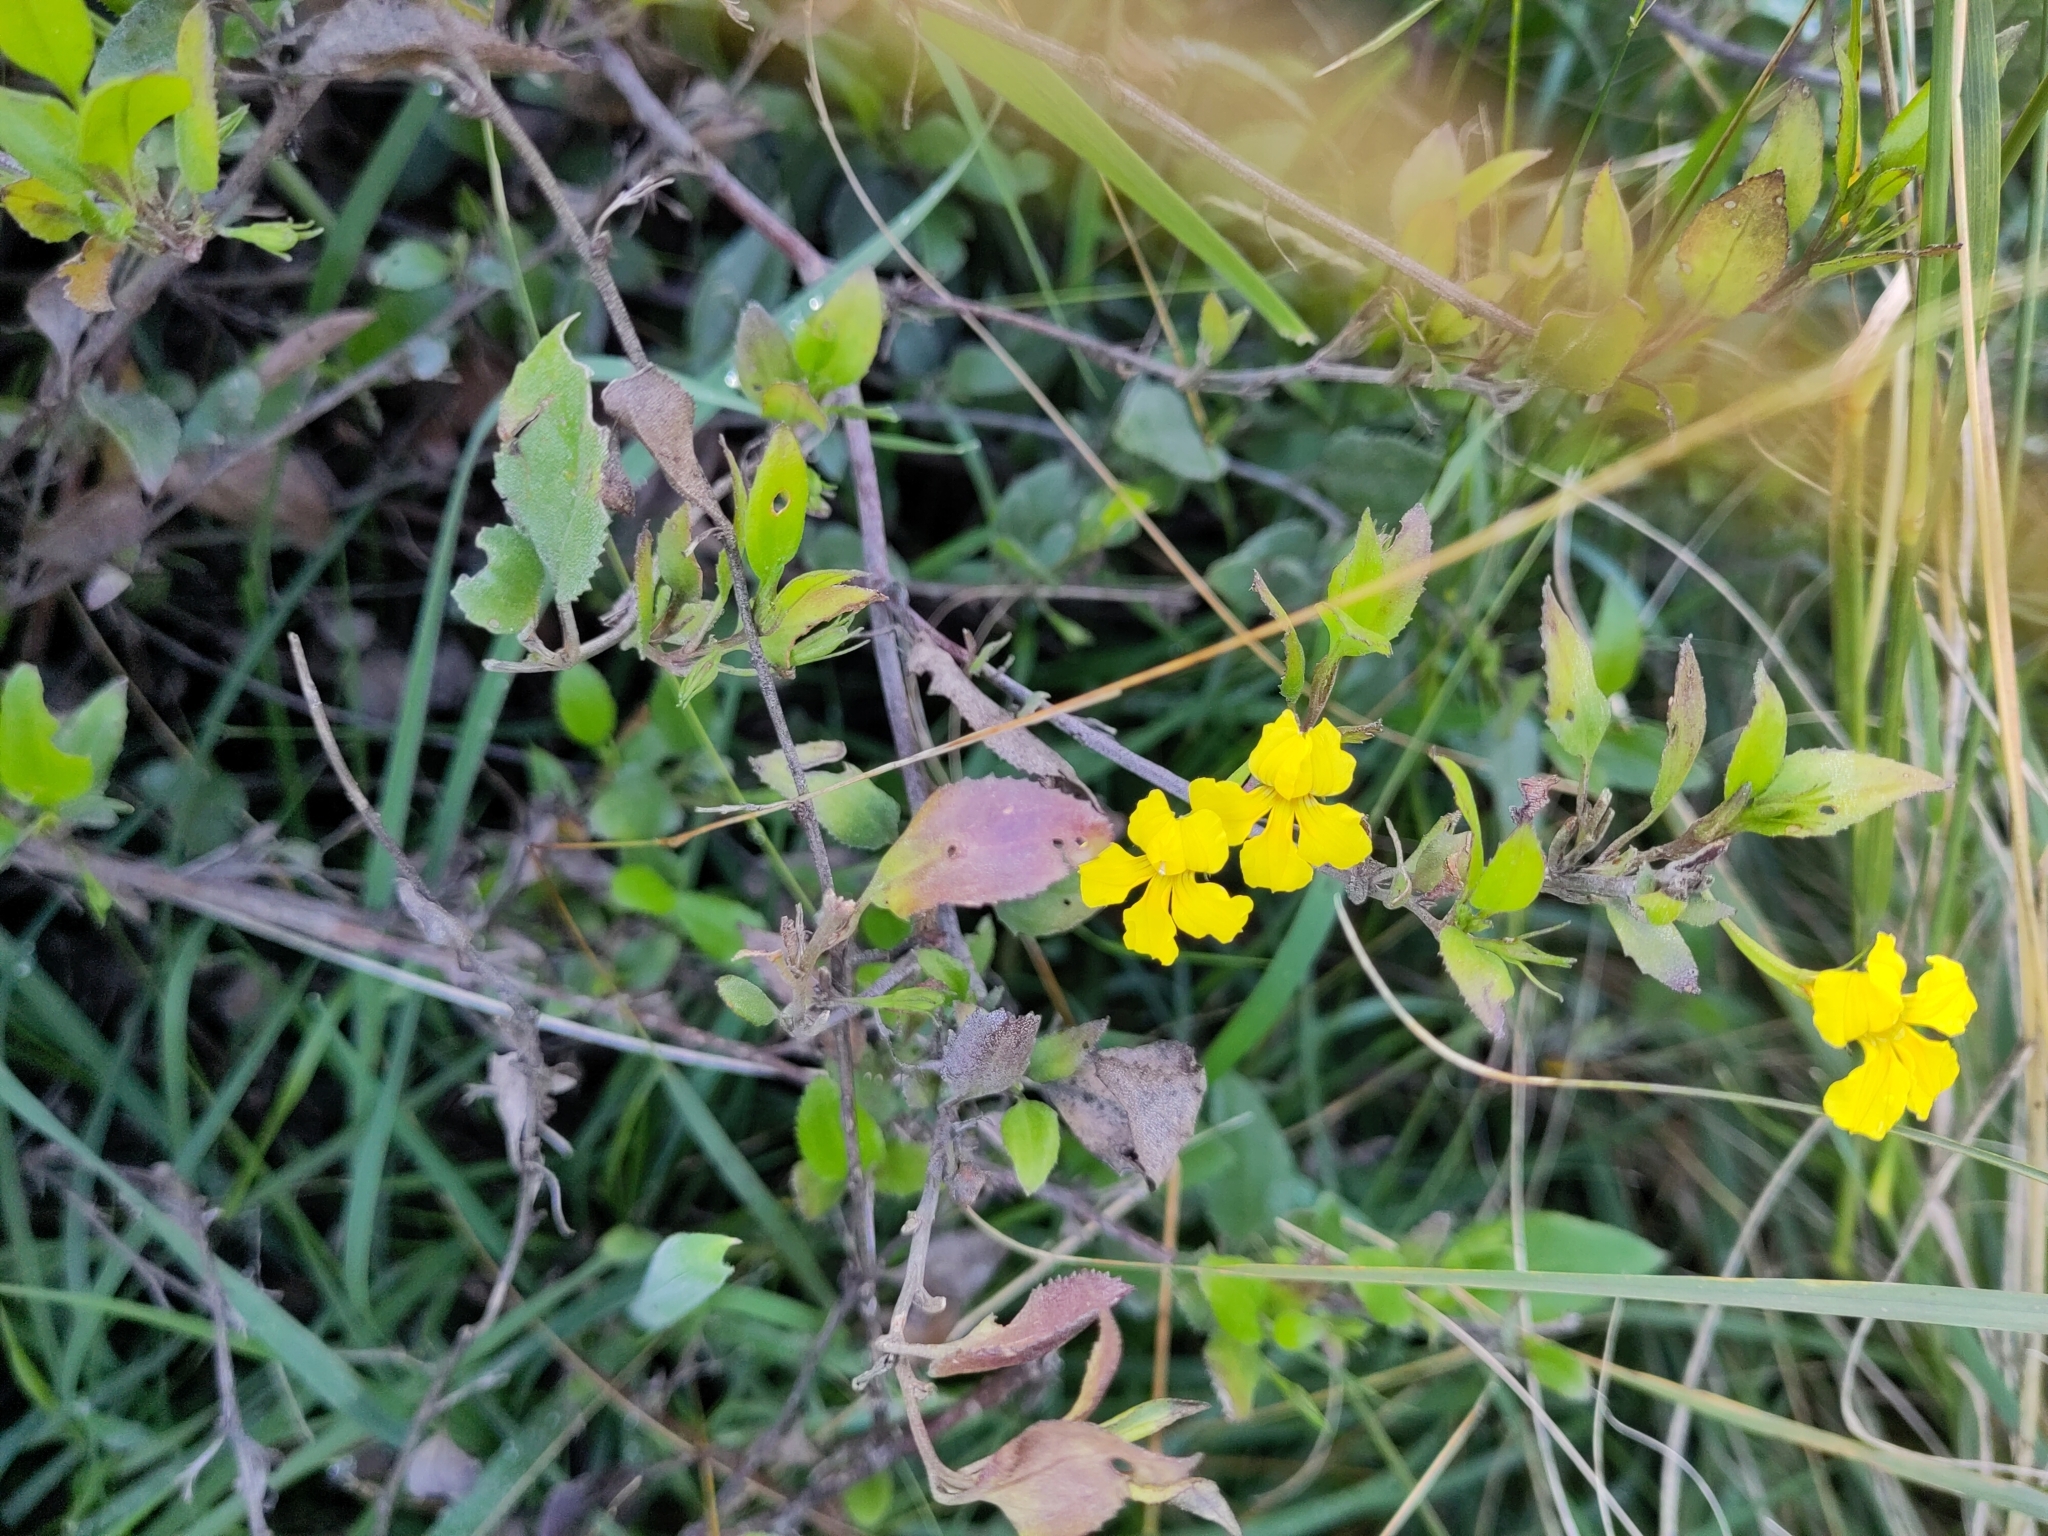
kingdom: Plantae
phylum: Tracheophyta
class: Magnoliopsida
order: Asterales
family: Goodeniaceae
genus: Goodenia
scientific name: Goodenia ovata
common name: Hop goodenia
